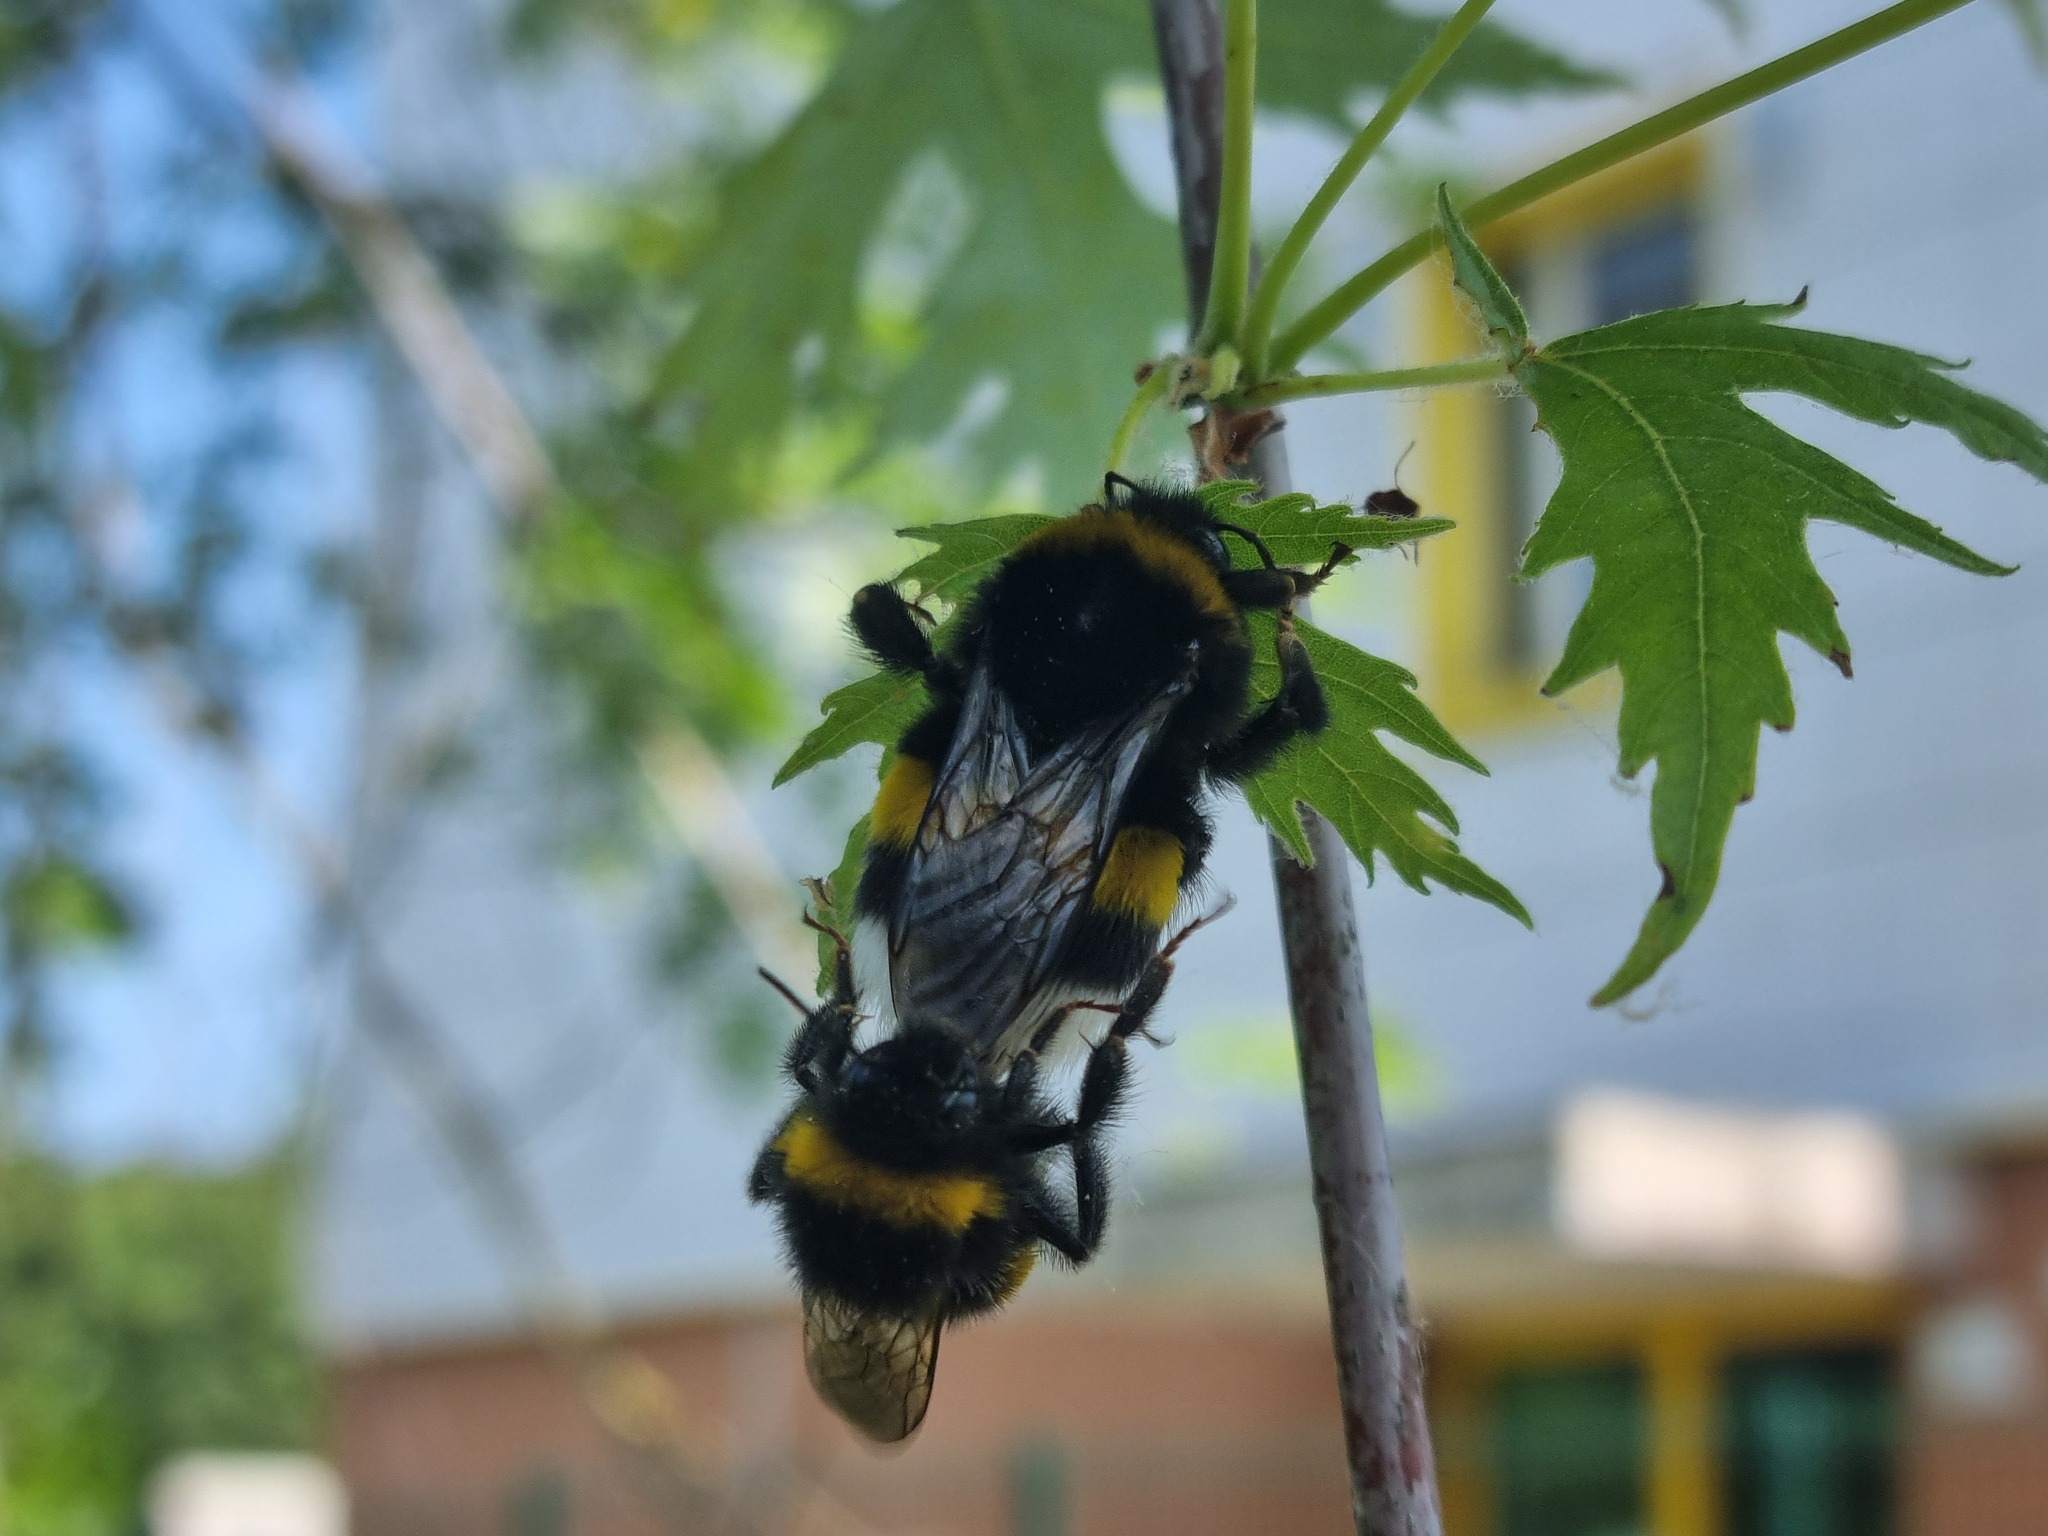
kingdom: Animalia
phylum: Arthropoda
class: Insecta
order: Hymenoptera
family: Apidae
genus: Bombus
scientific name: Bombus terrestris
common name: Buff-tailed bumblebee
